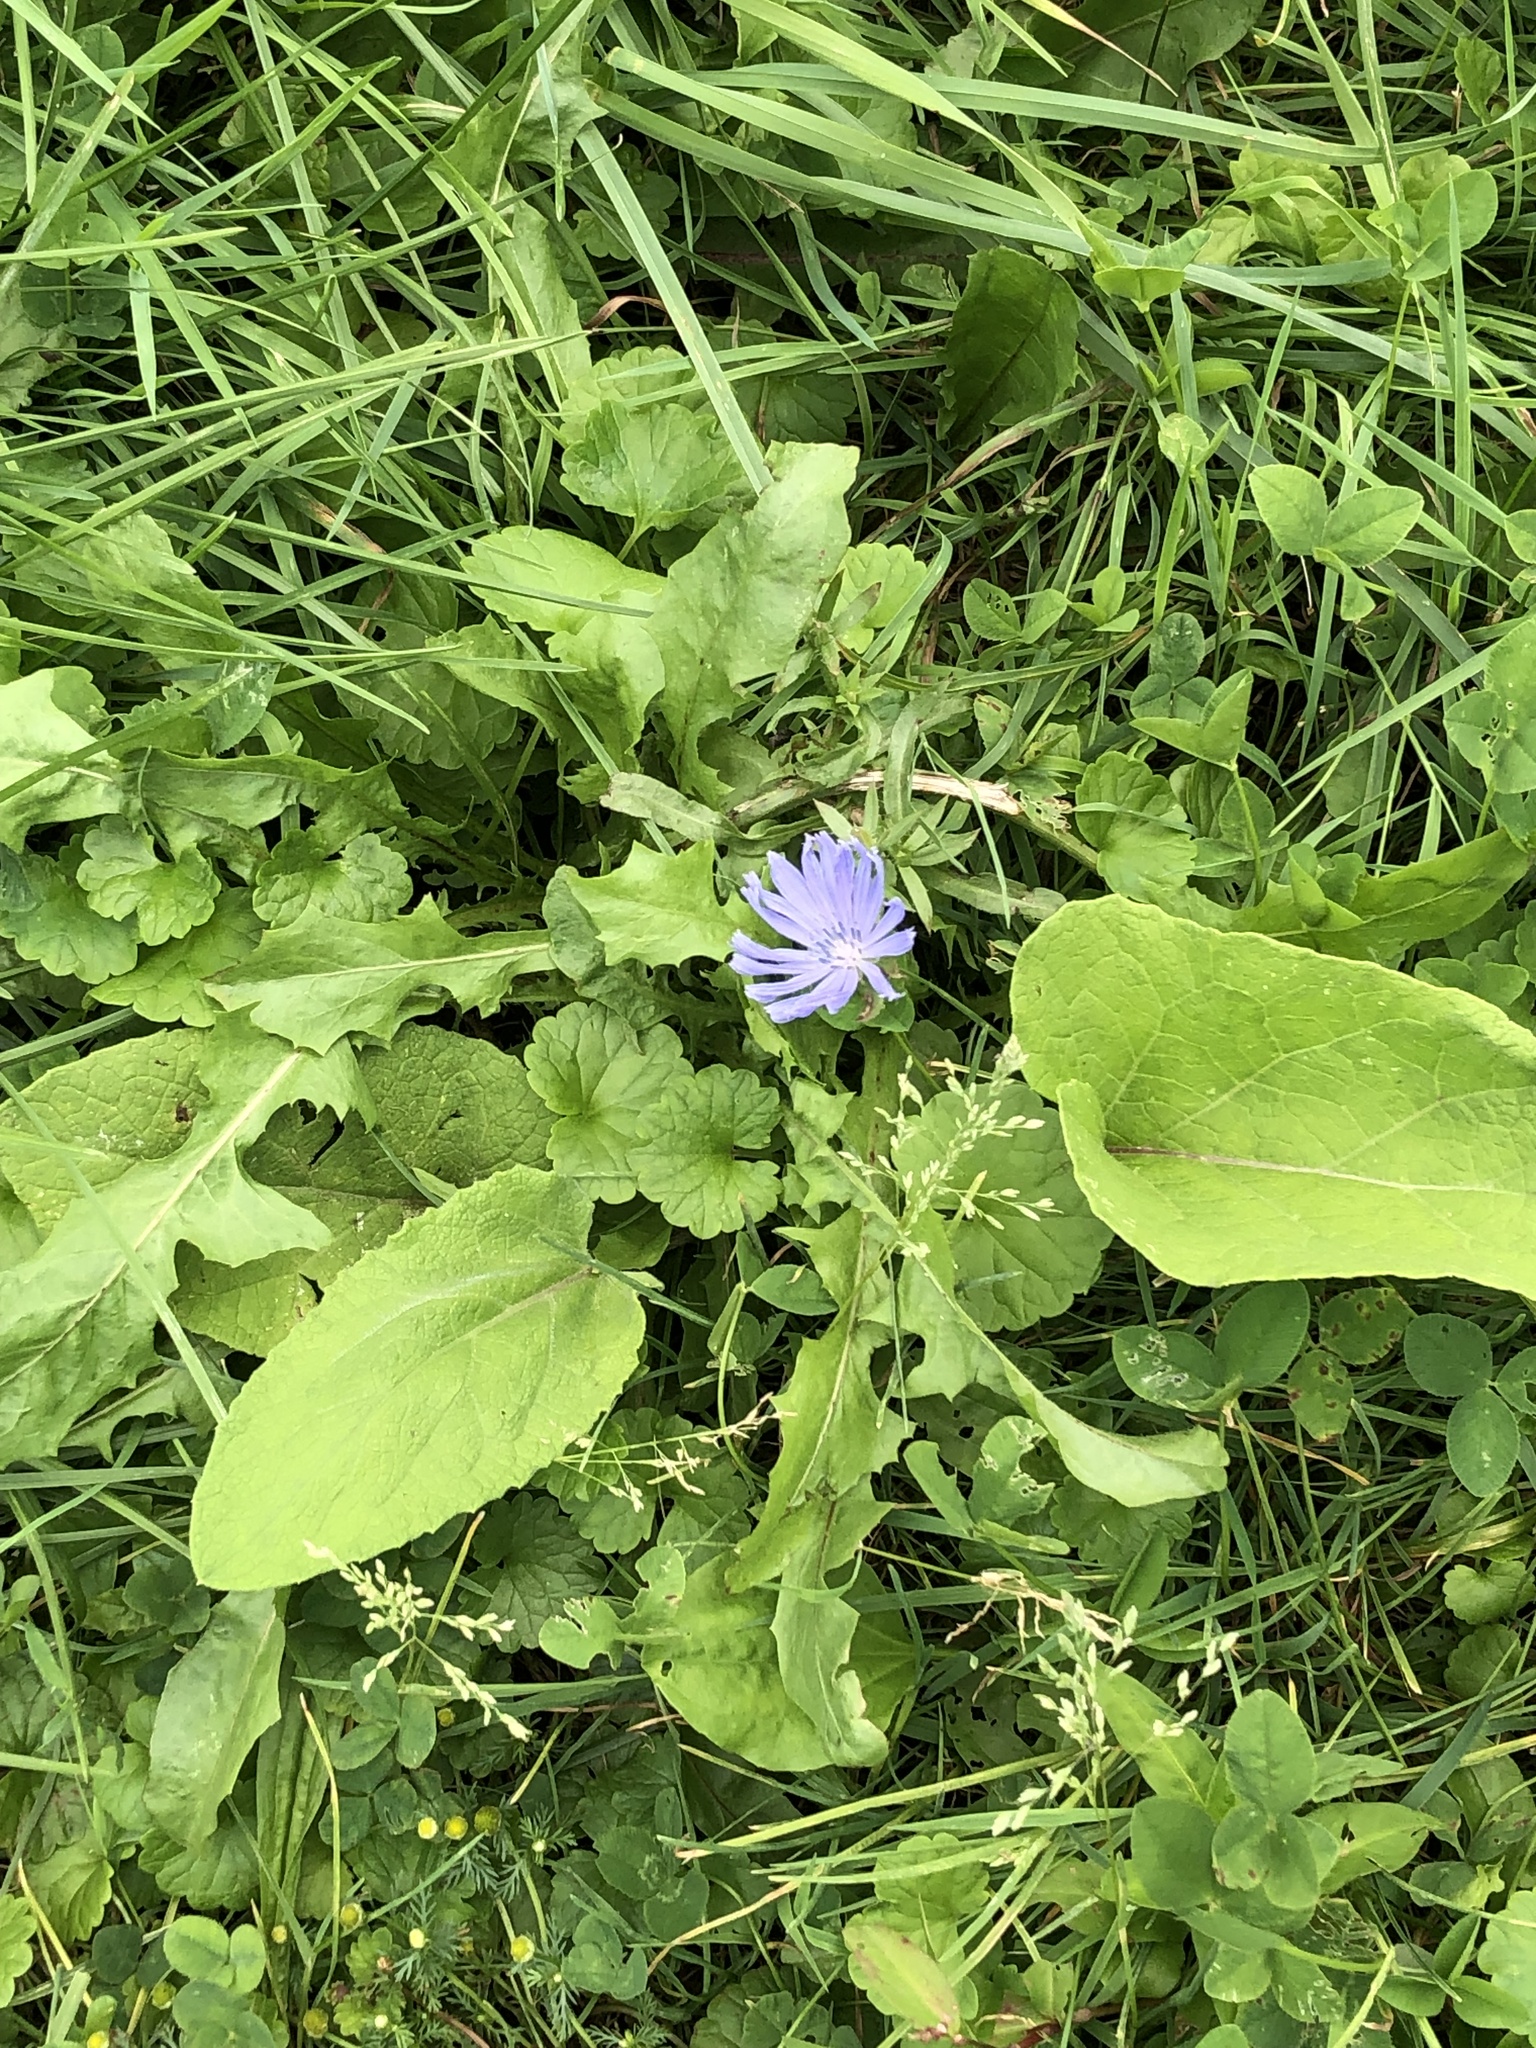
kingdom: Plantae
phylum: Tracheophyta
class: Magnoliopsida
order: Asterales
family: Asteraceae
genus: Cichorium
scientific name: Cichorium intybus
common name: Chicory
